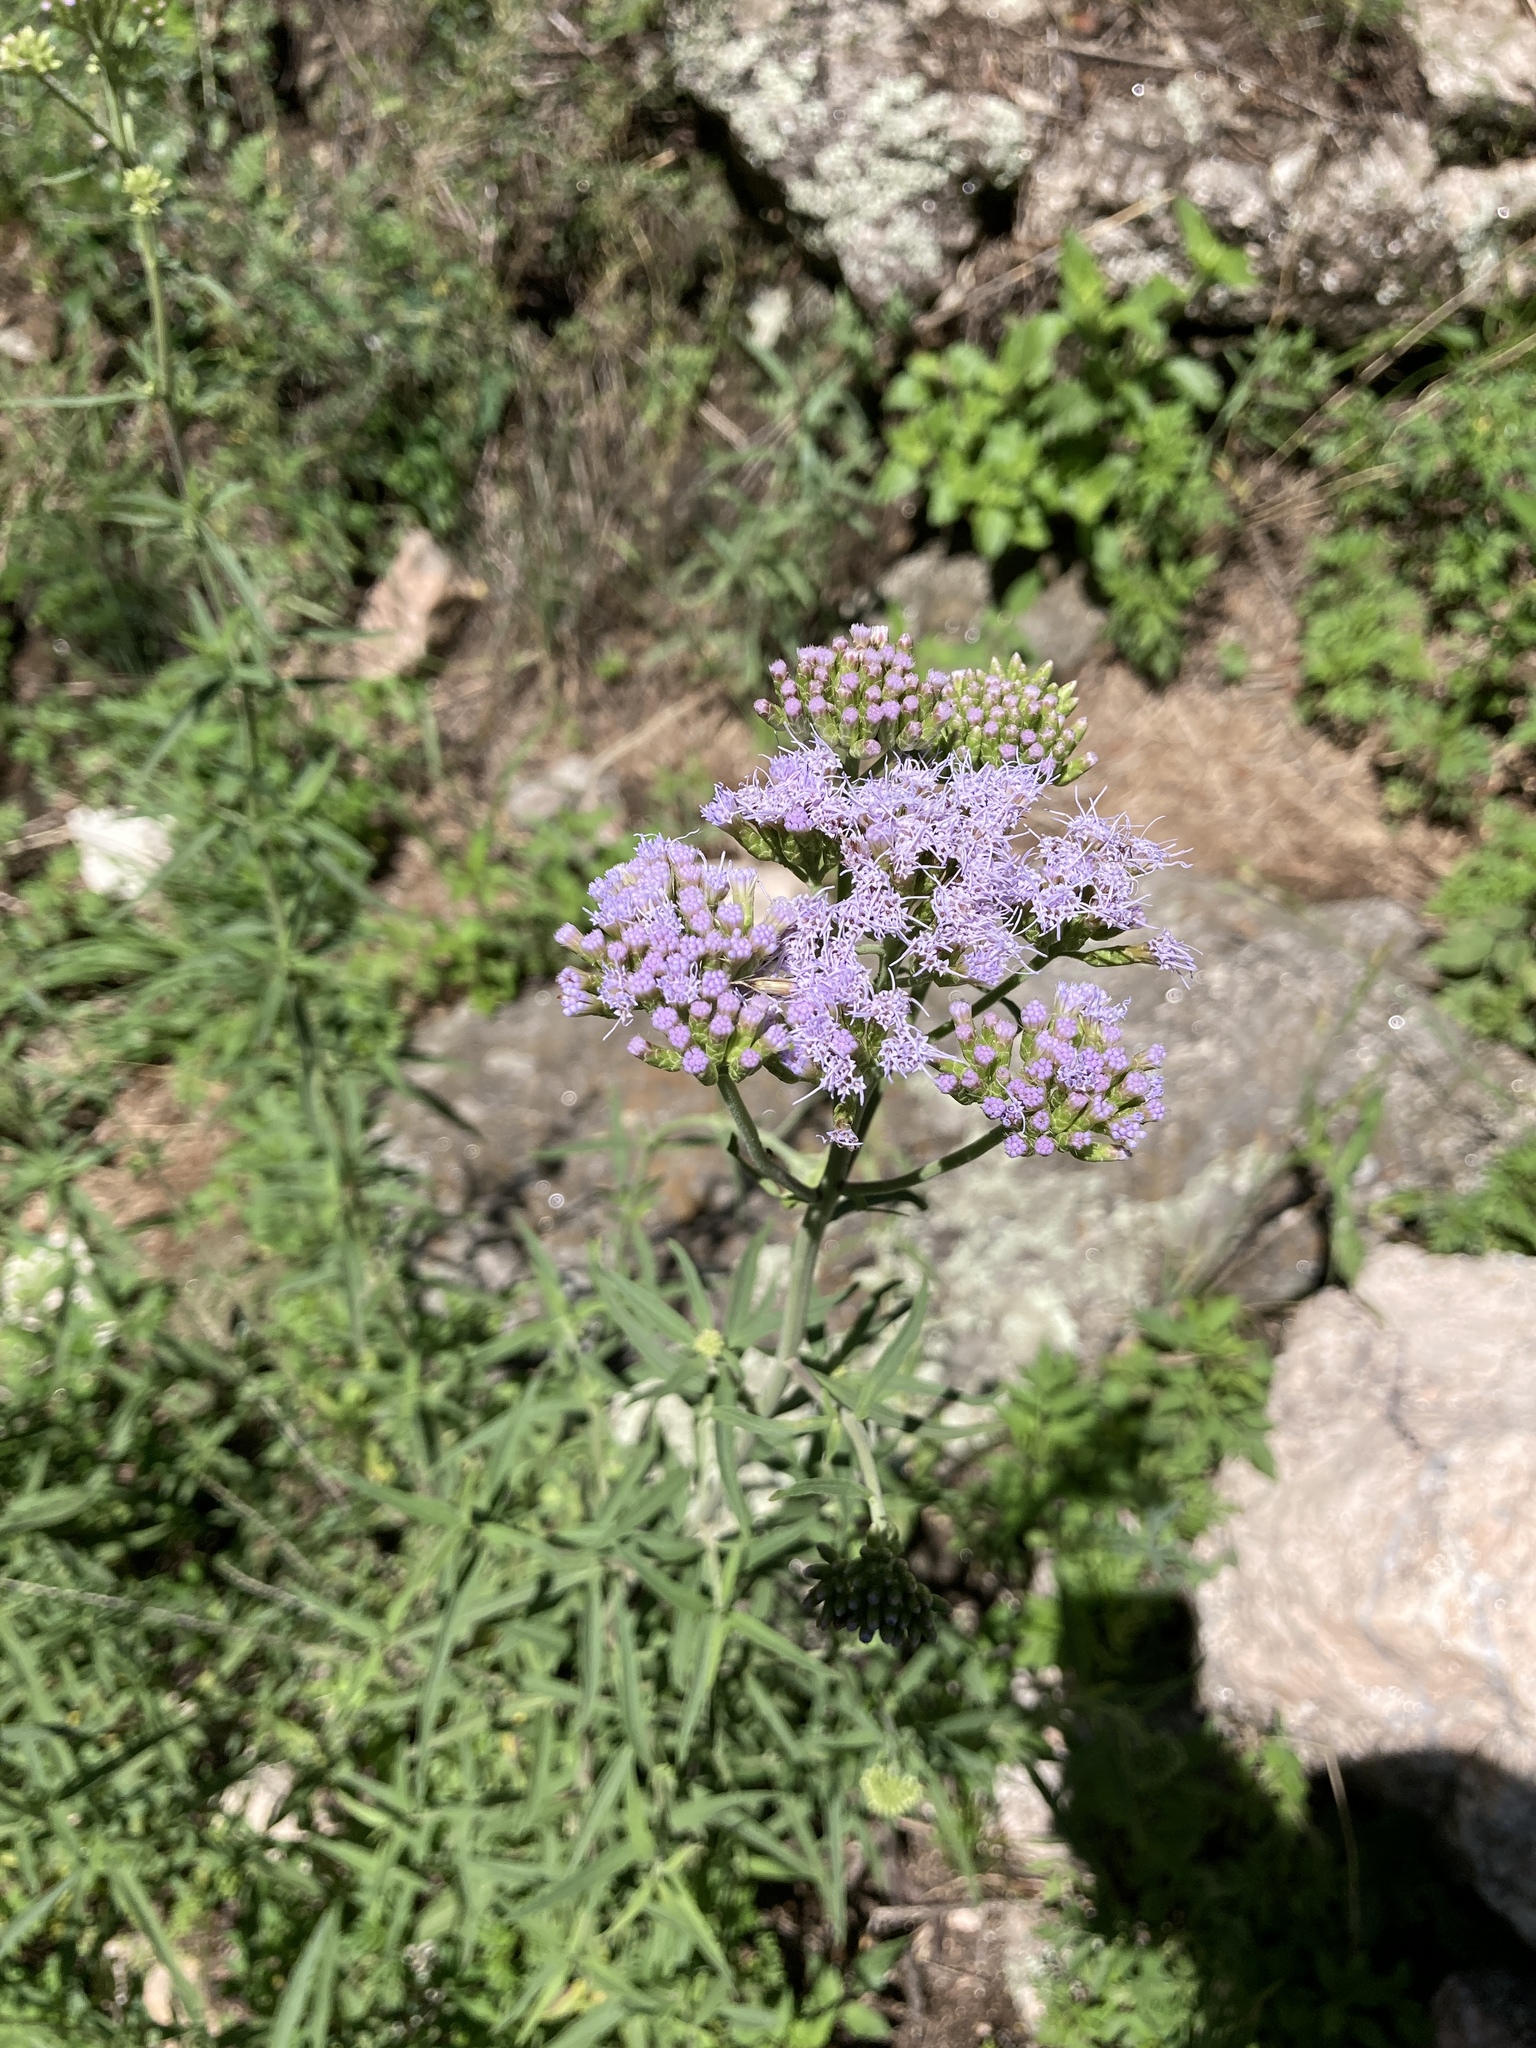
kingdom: Plantae
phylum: Tracheophyta
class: Magnoliopsida
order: Asterales
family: Asteraceae
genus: Chromolaena
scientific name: Chromolaena arnottiana
